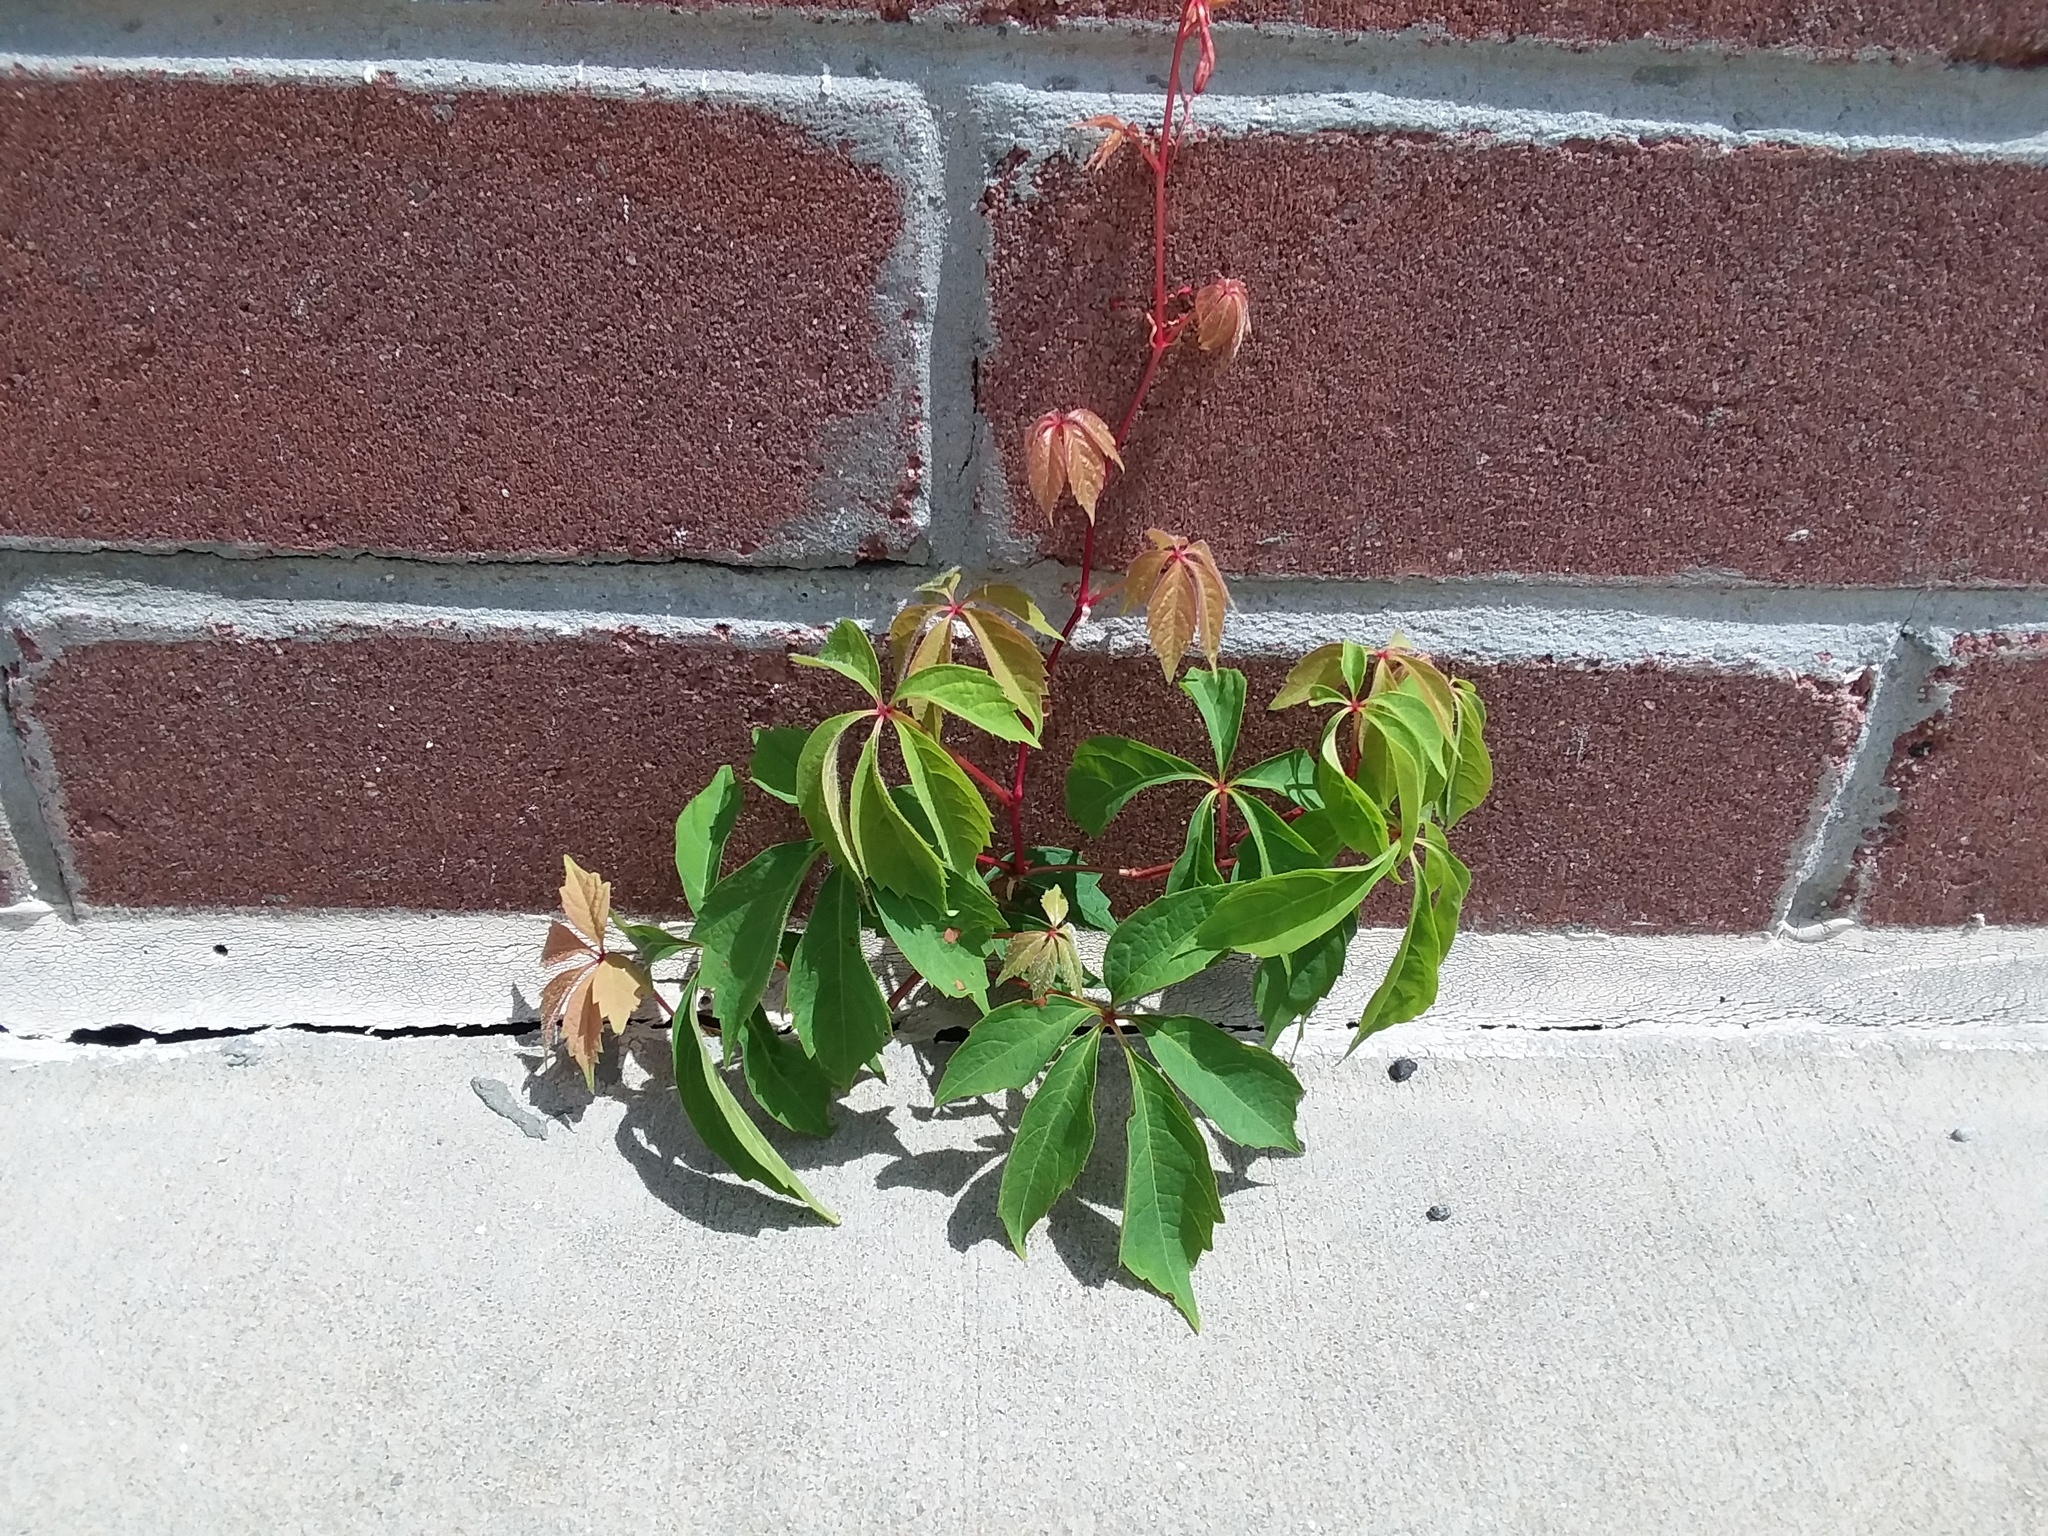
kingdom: Plantae
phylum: Tracheophyta
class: Magnoliopsida
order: Vitales
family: Vitaceae
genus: Parthenocissus
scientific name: Parthenocissus quinquefolia
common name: Virginia-creeper
